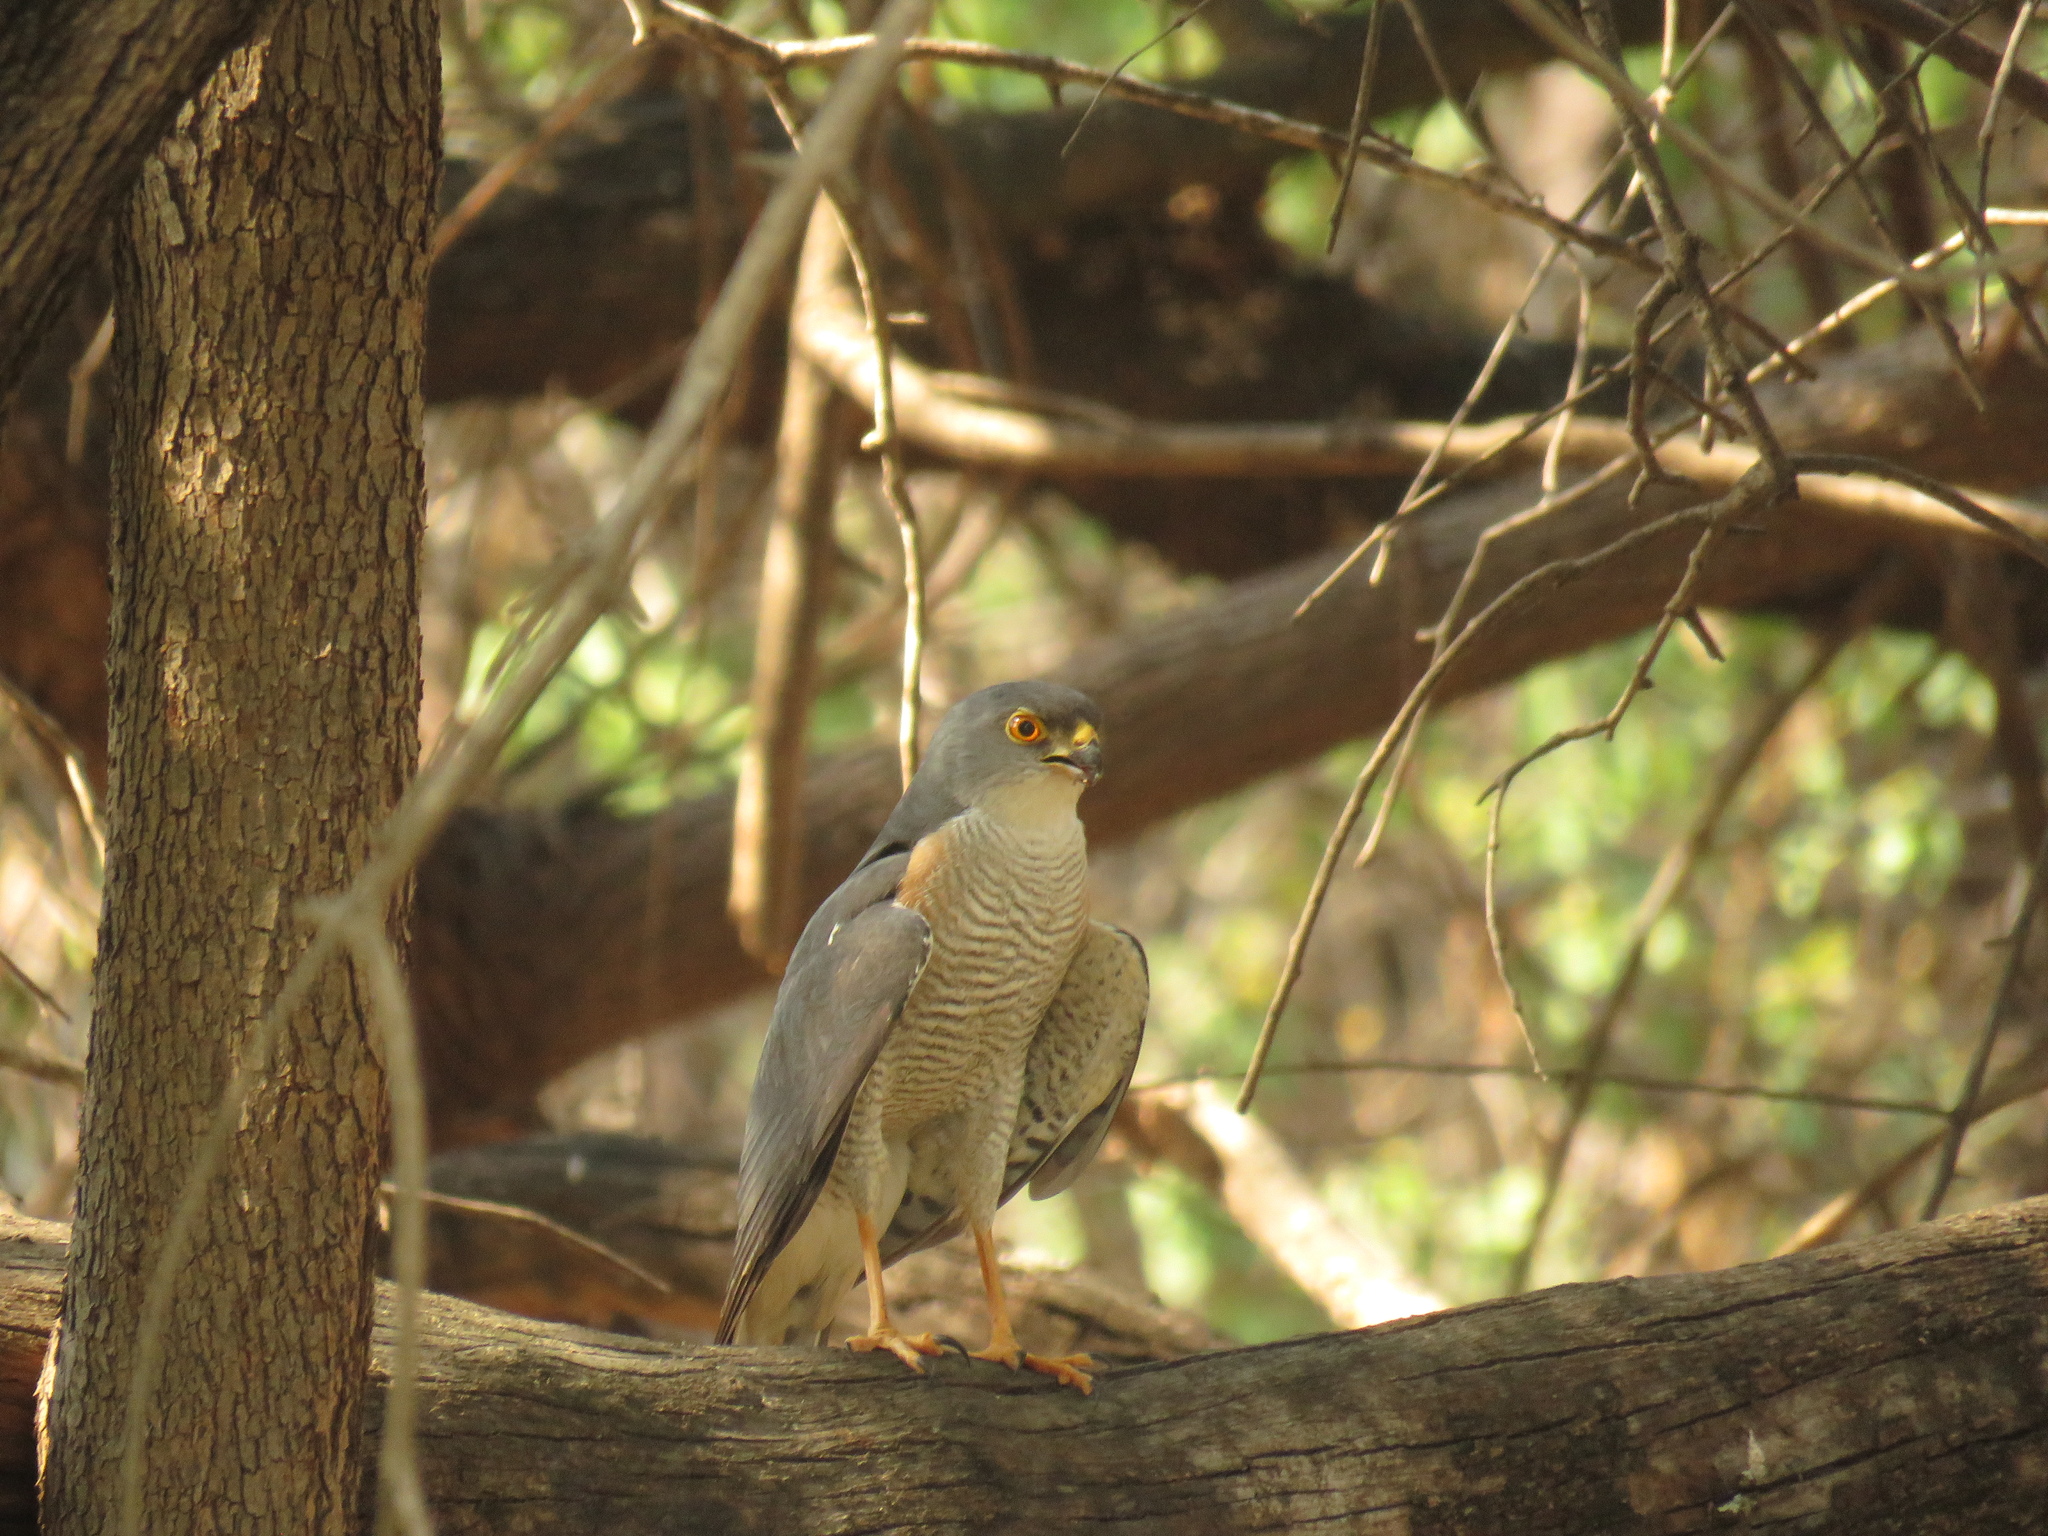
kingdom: Animalia
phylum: Chordata
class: Aves
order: Accipitriformes
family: Accipitridae
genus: Accipiter
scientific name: Accipiter minullus
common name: Little sparrowhawk
